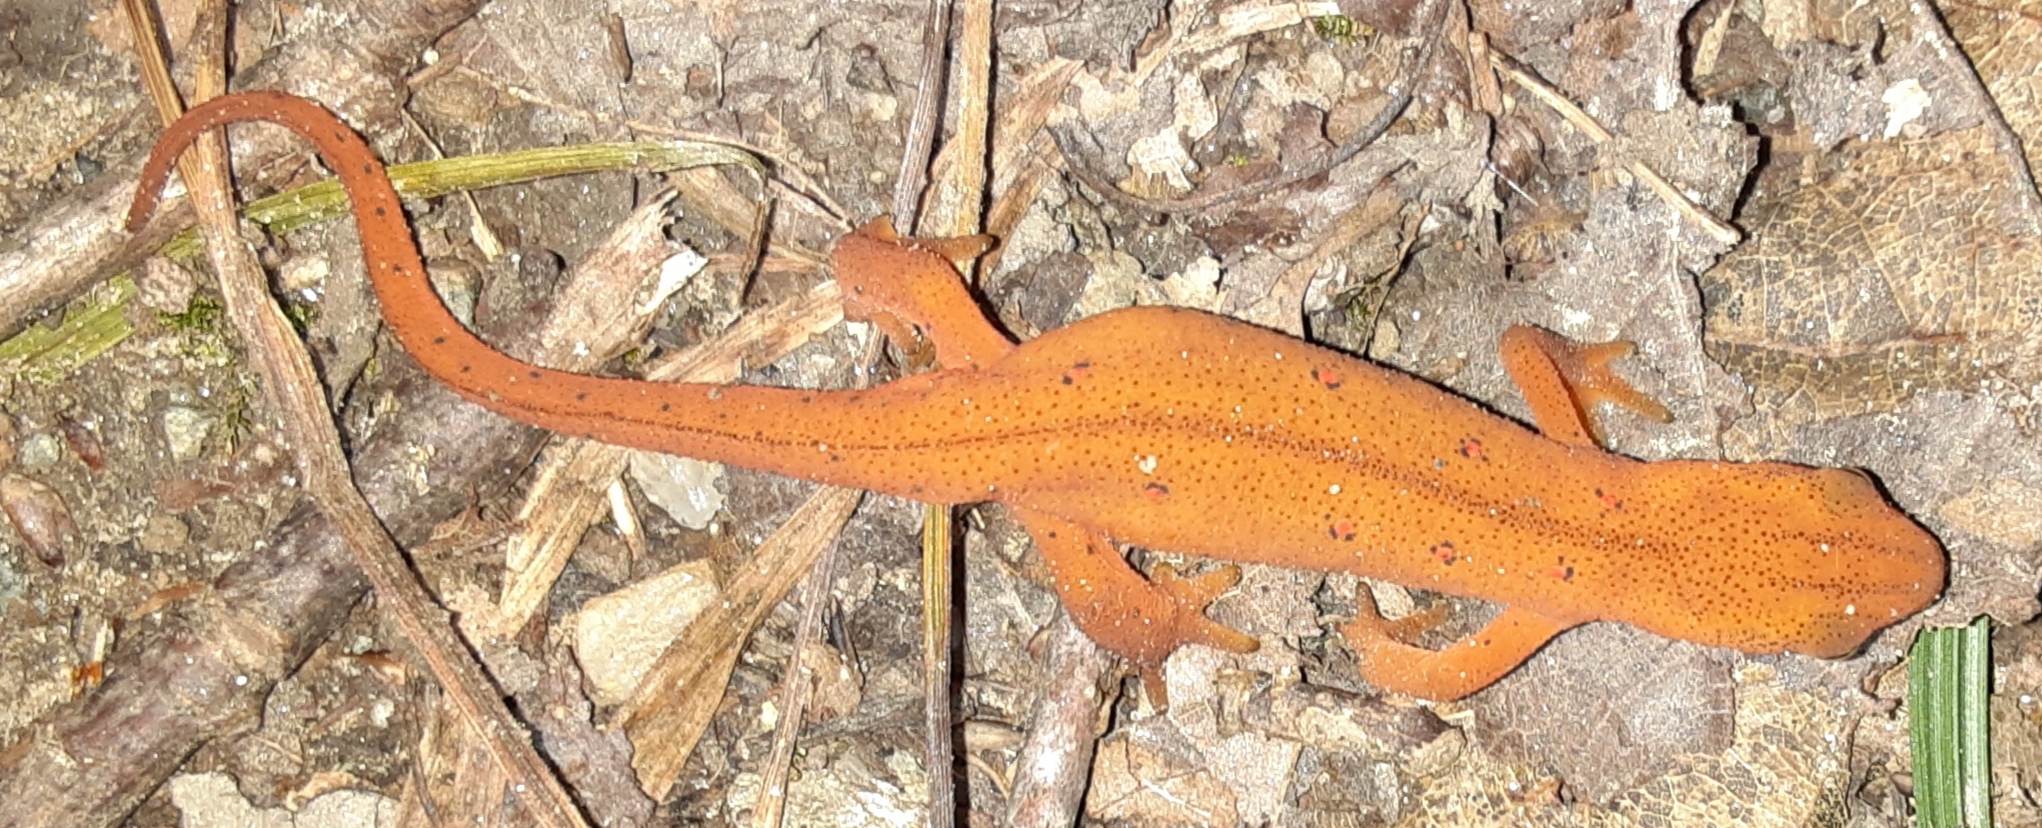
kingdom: Animalia
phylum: Chordata
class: Amphibia
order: Caudata
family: Salamandridae
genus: Notophthalmus
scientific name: Notophthalmus viridescens
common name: Eastern newt
